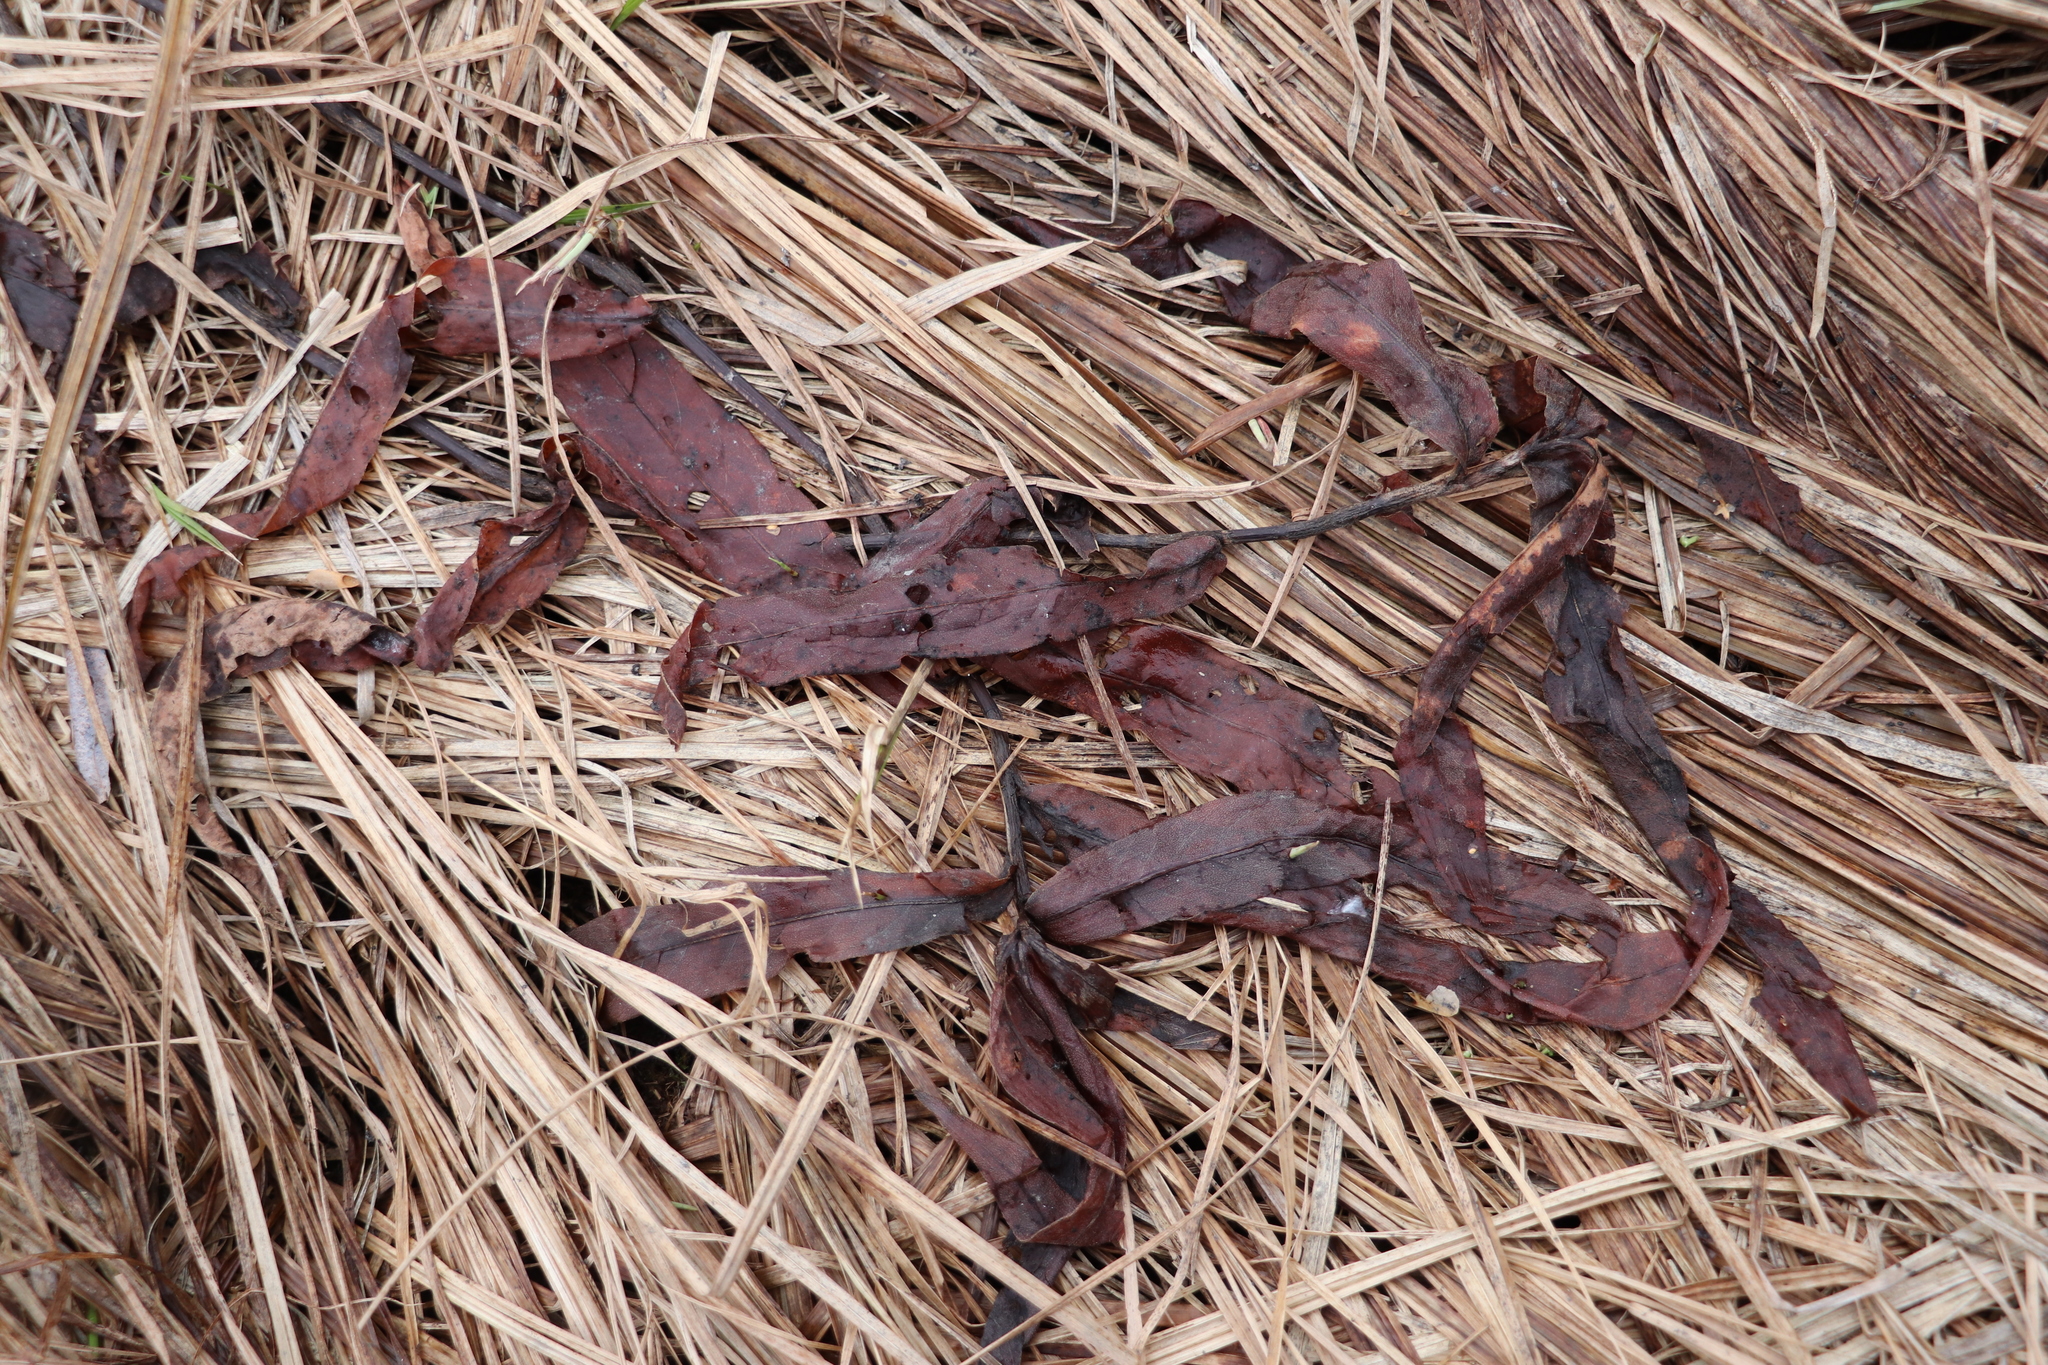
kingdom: Plantae
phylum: Tracheophyta
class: Magnoliopsida
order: Caryophyllales
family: Polygonaceae
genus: Persicaria
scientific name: Persicaria amphibia
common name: Amphibious bistort
